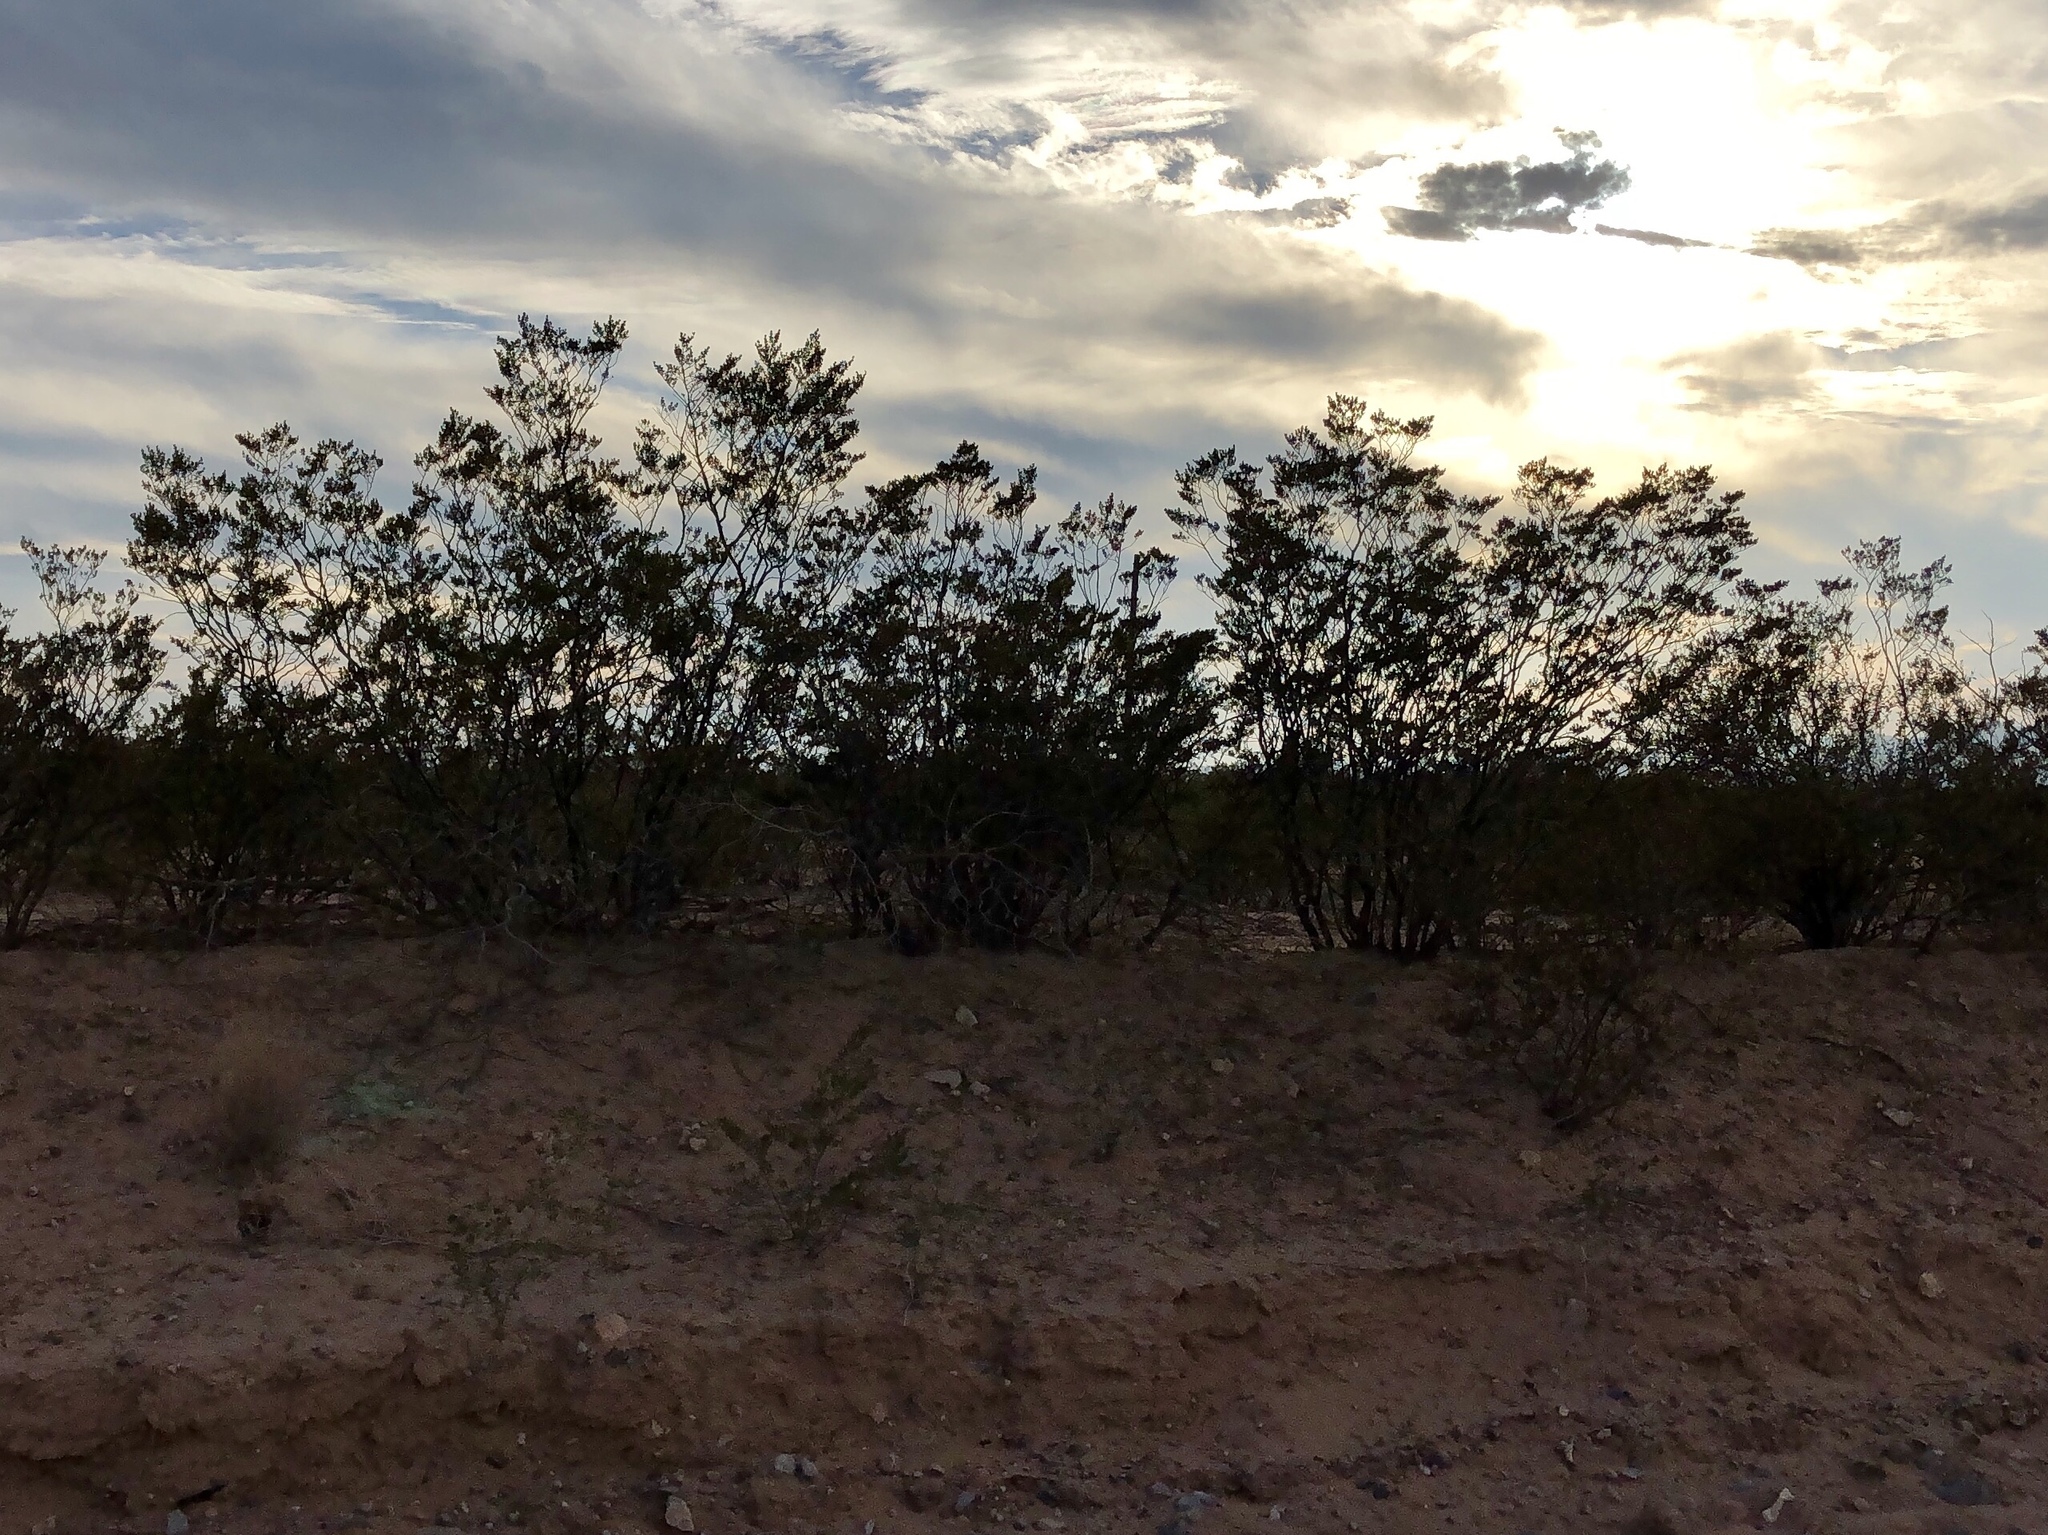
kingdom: Plantae
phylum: Tracheophyta
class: Magnoliopsida
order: Zygophyllales
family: Zygophyllaceae
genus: Larrea
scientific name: Larrea tridentata
